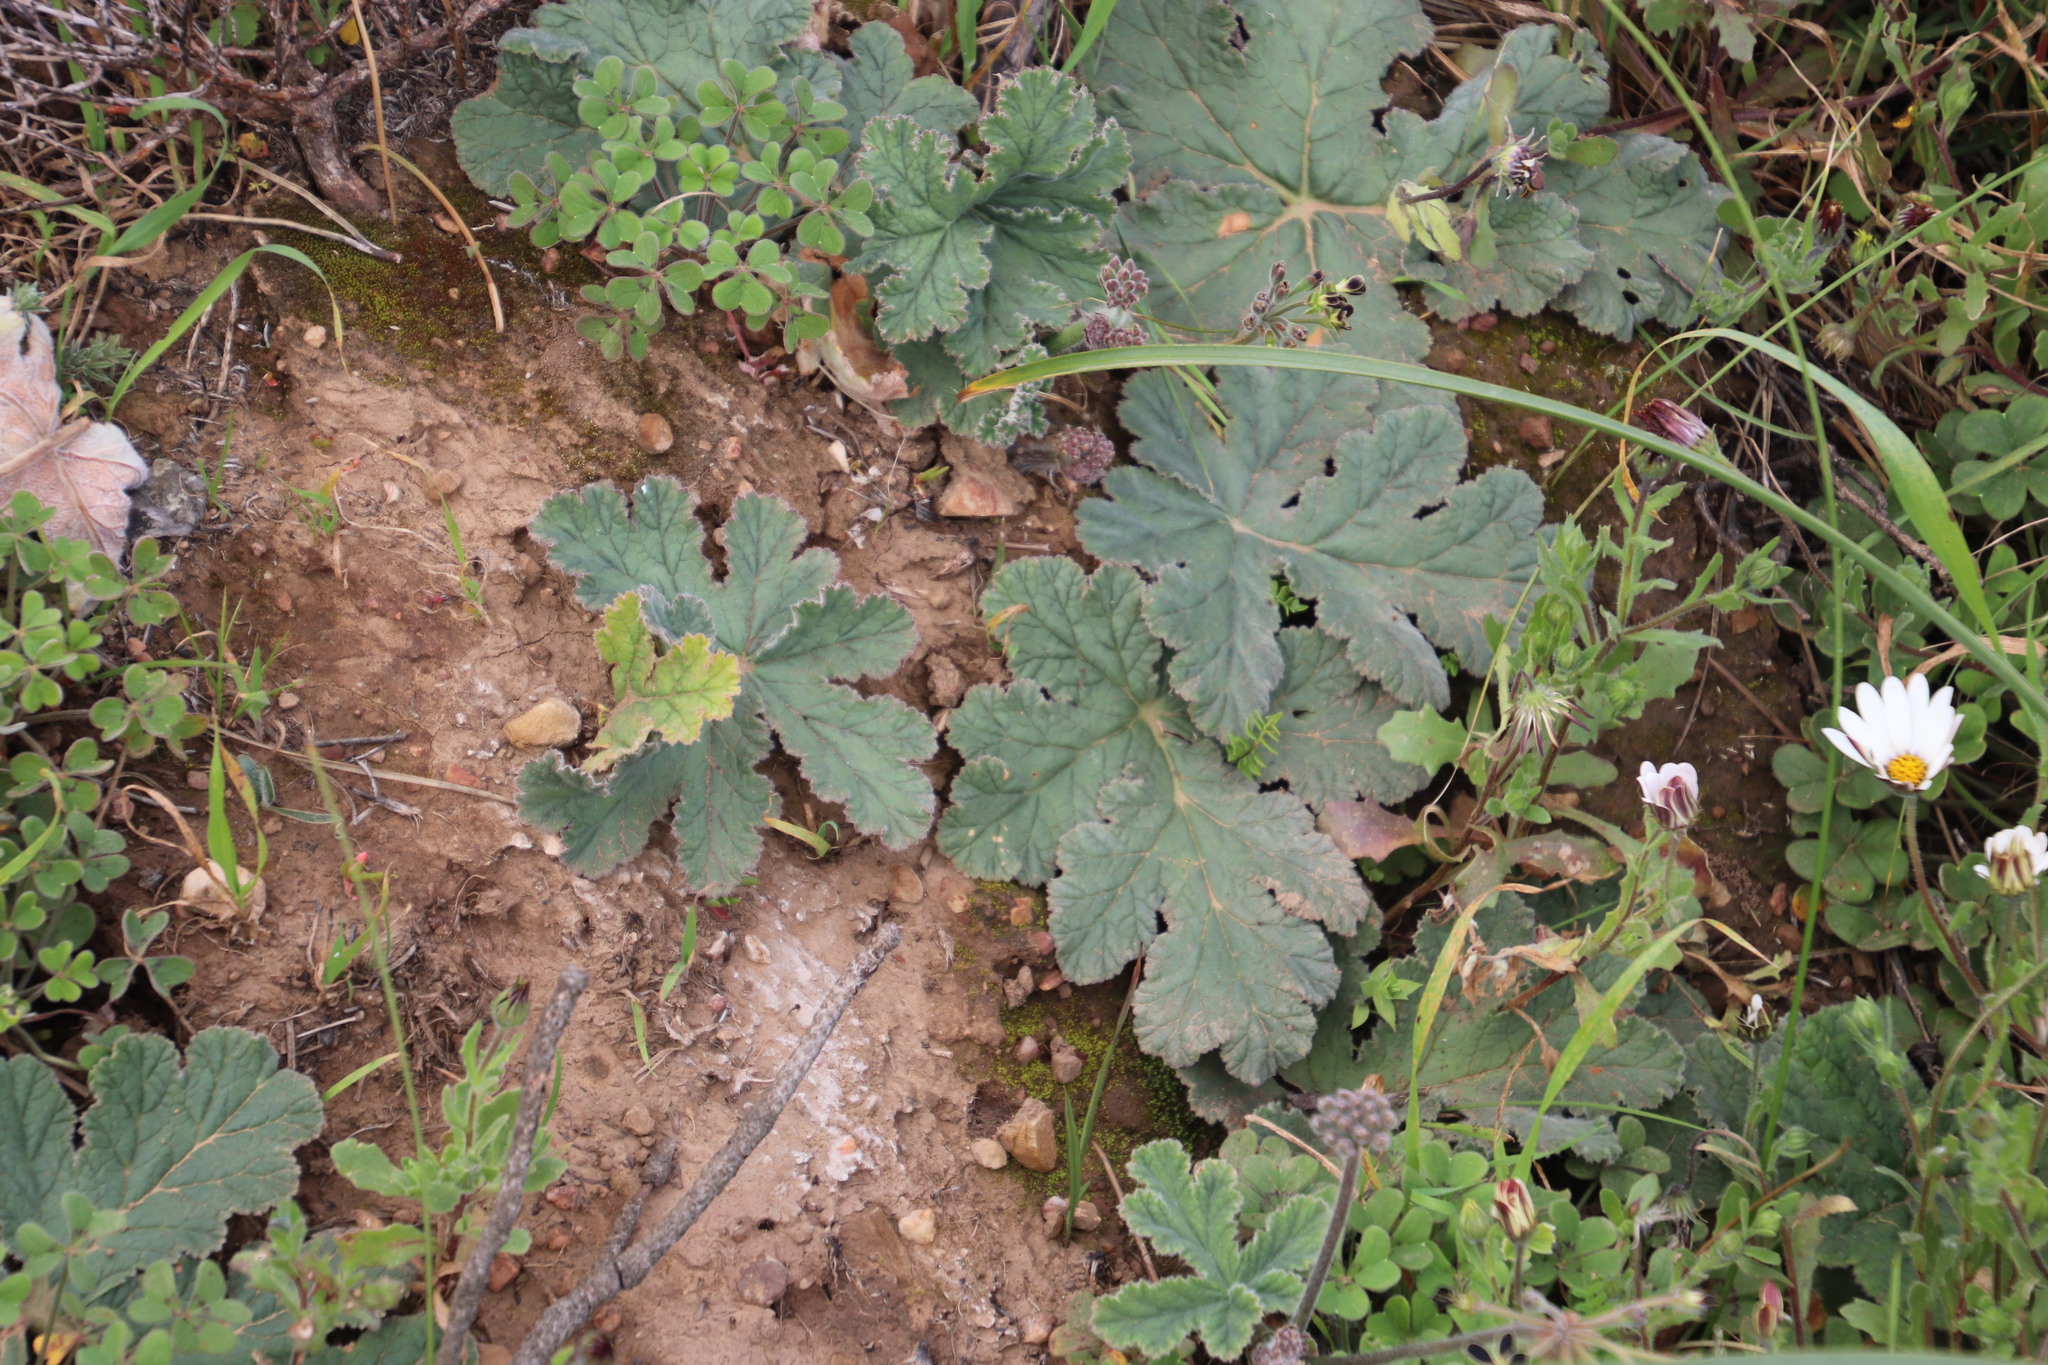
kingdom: Plantae
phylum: Tracheophyta
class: Magnoliopsida
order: Geraniales
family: Geraniaceae
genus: Pelargonium
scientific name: Pelargonium lobatum
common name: Vine-leaf pelargonium
